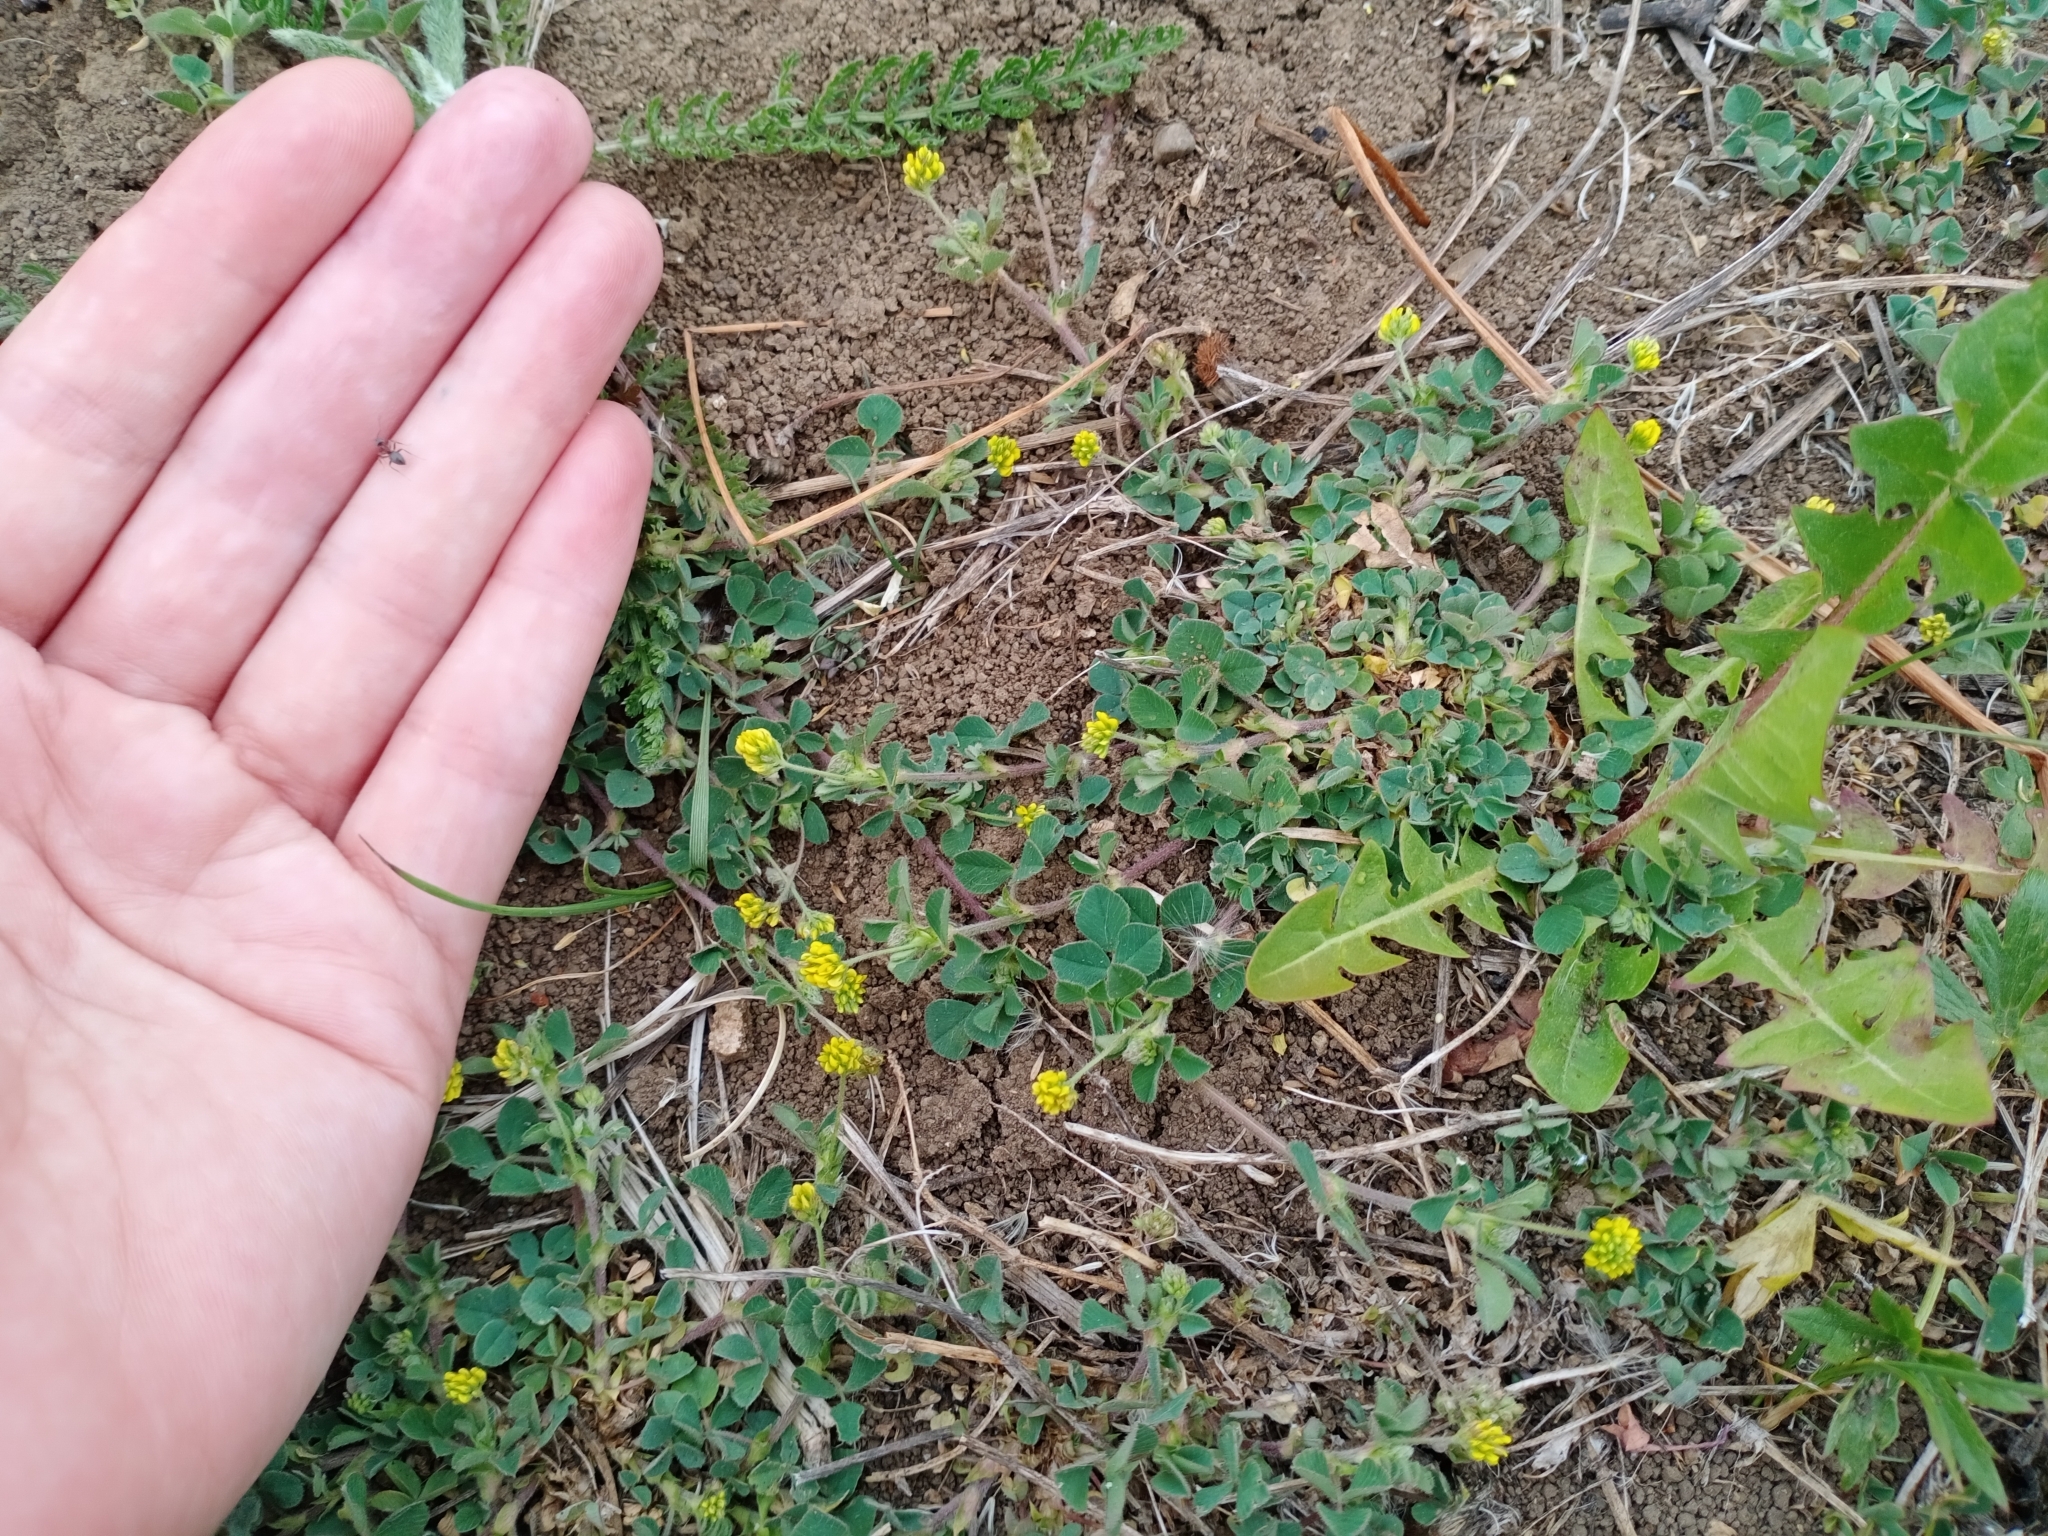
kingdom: Plantae
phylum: Tracheophyta
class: Magnoliopsida
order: Fabales
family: Fabaceae
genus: Medicago
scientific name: Medicago lupulina
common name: Black medick
